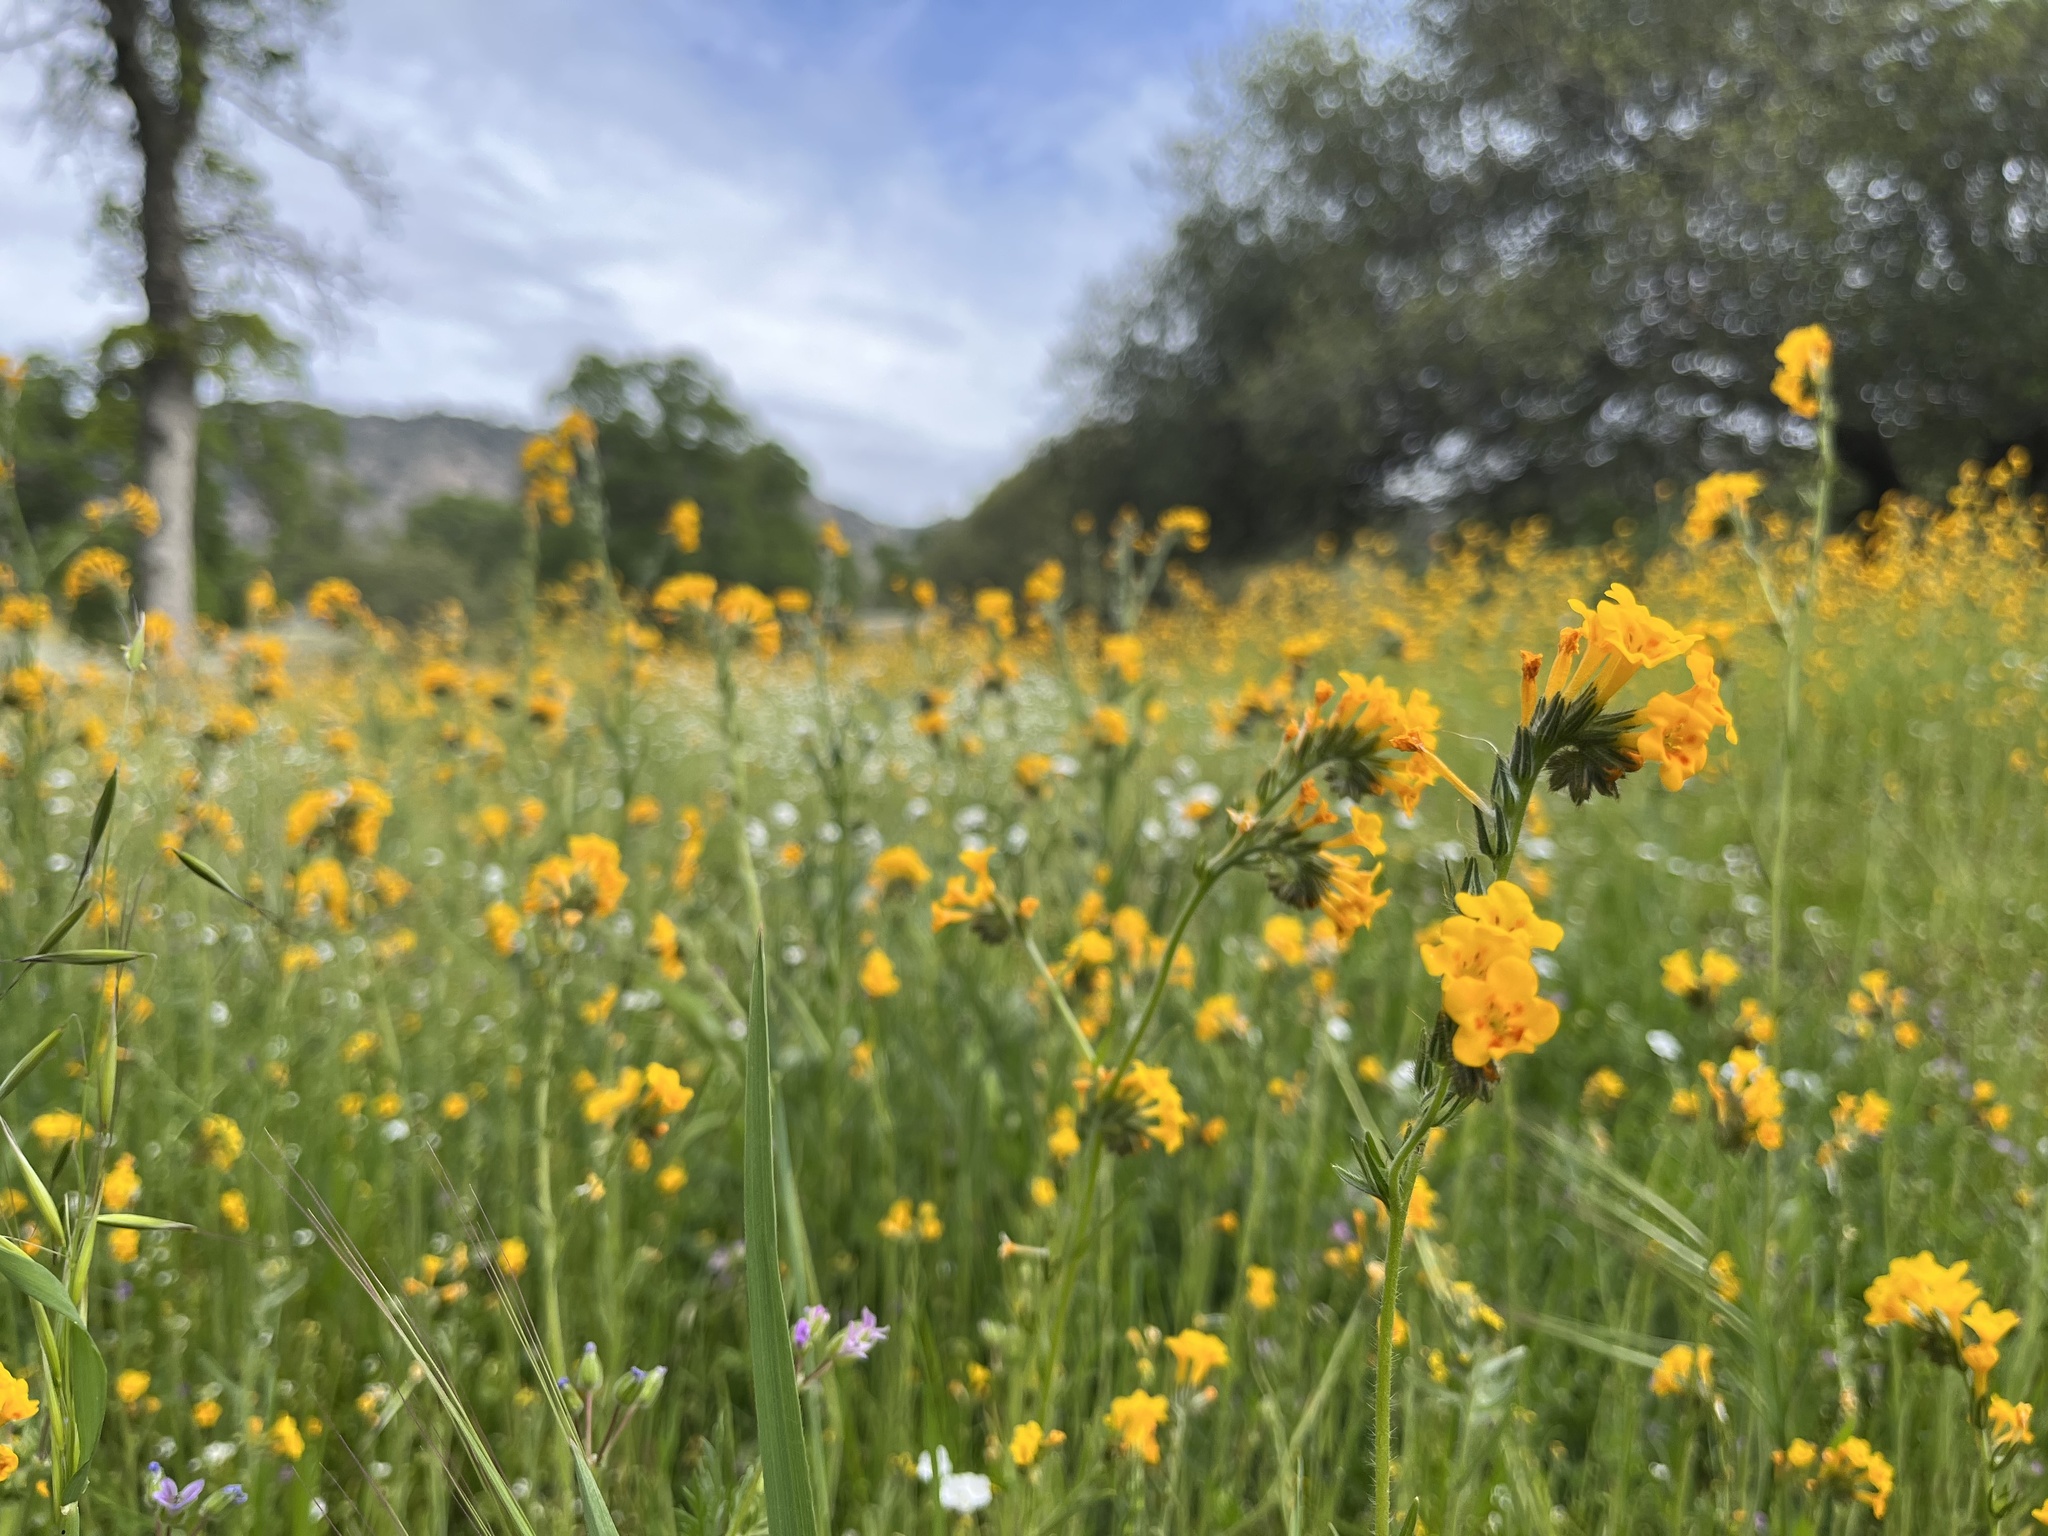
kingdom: Plantae
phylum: Tracheophyta
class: Magnoliopsida
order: Boraginales
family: Boraginaceae
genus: Amsinckia
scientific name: Amsinckia eastwoodiae
